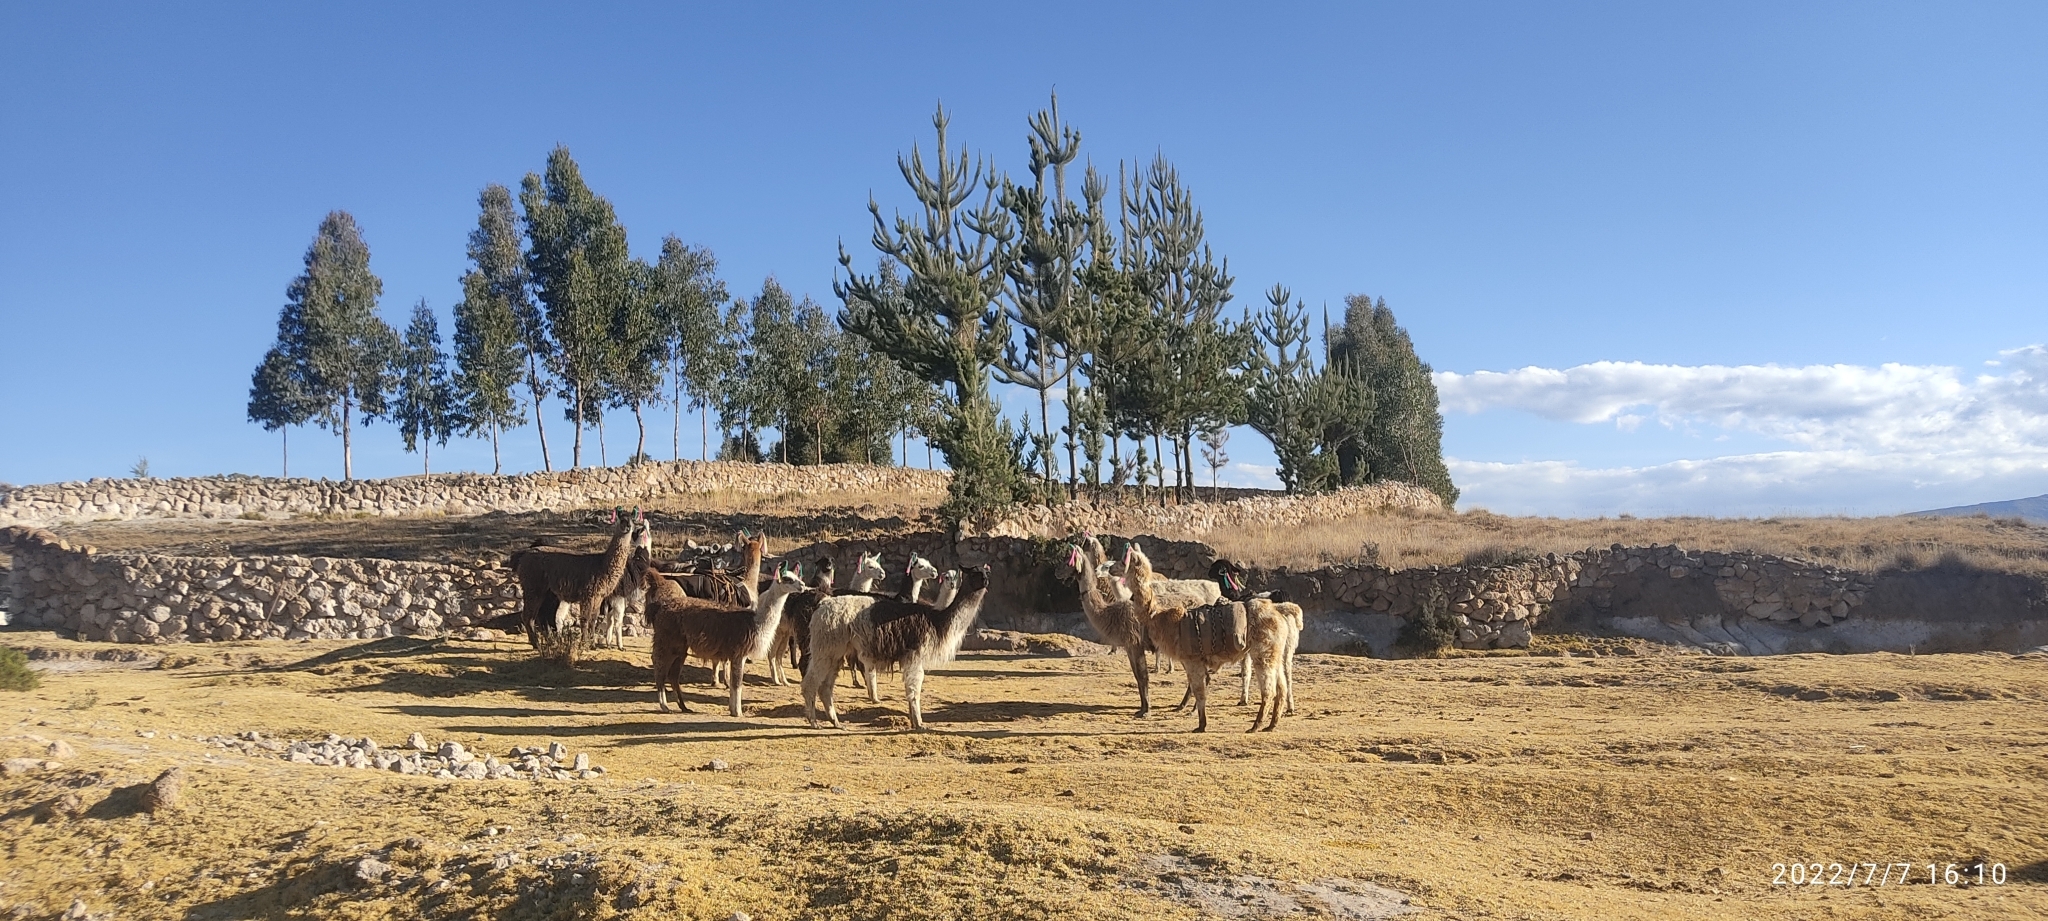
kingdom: Animalia
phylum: Chordata
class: Mammalia
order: Artiodactyla
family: Camelidae
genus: Lama
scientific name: Lama glama
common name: Llama
